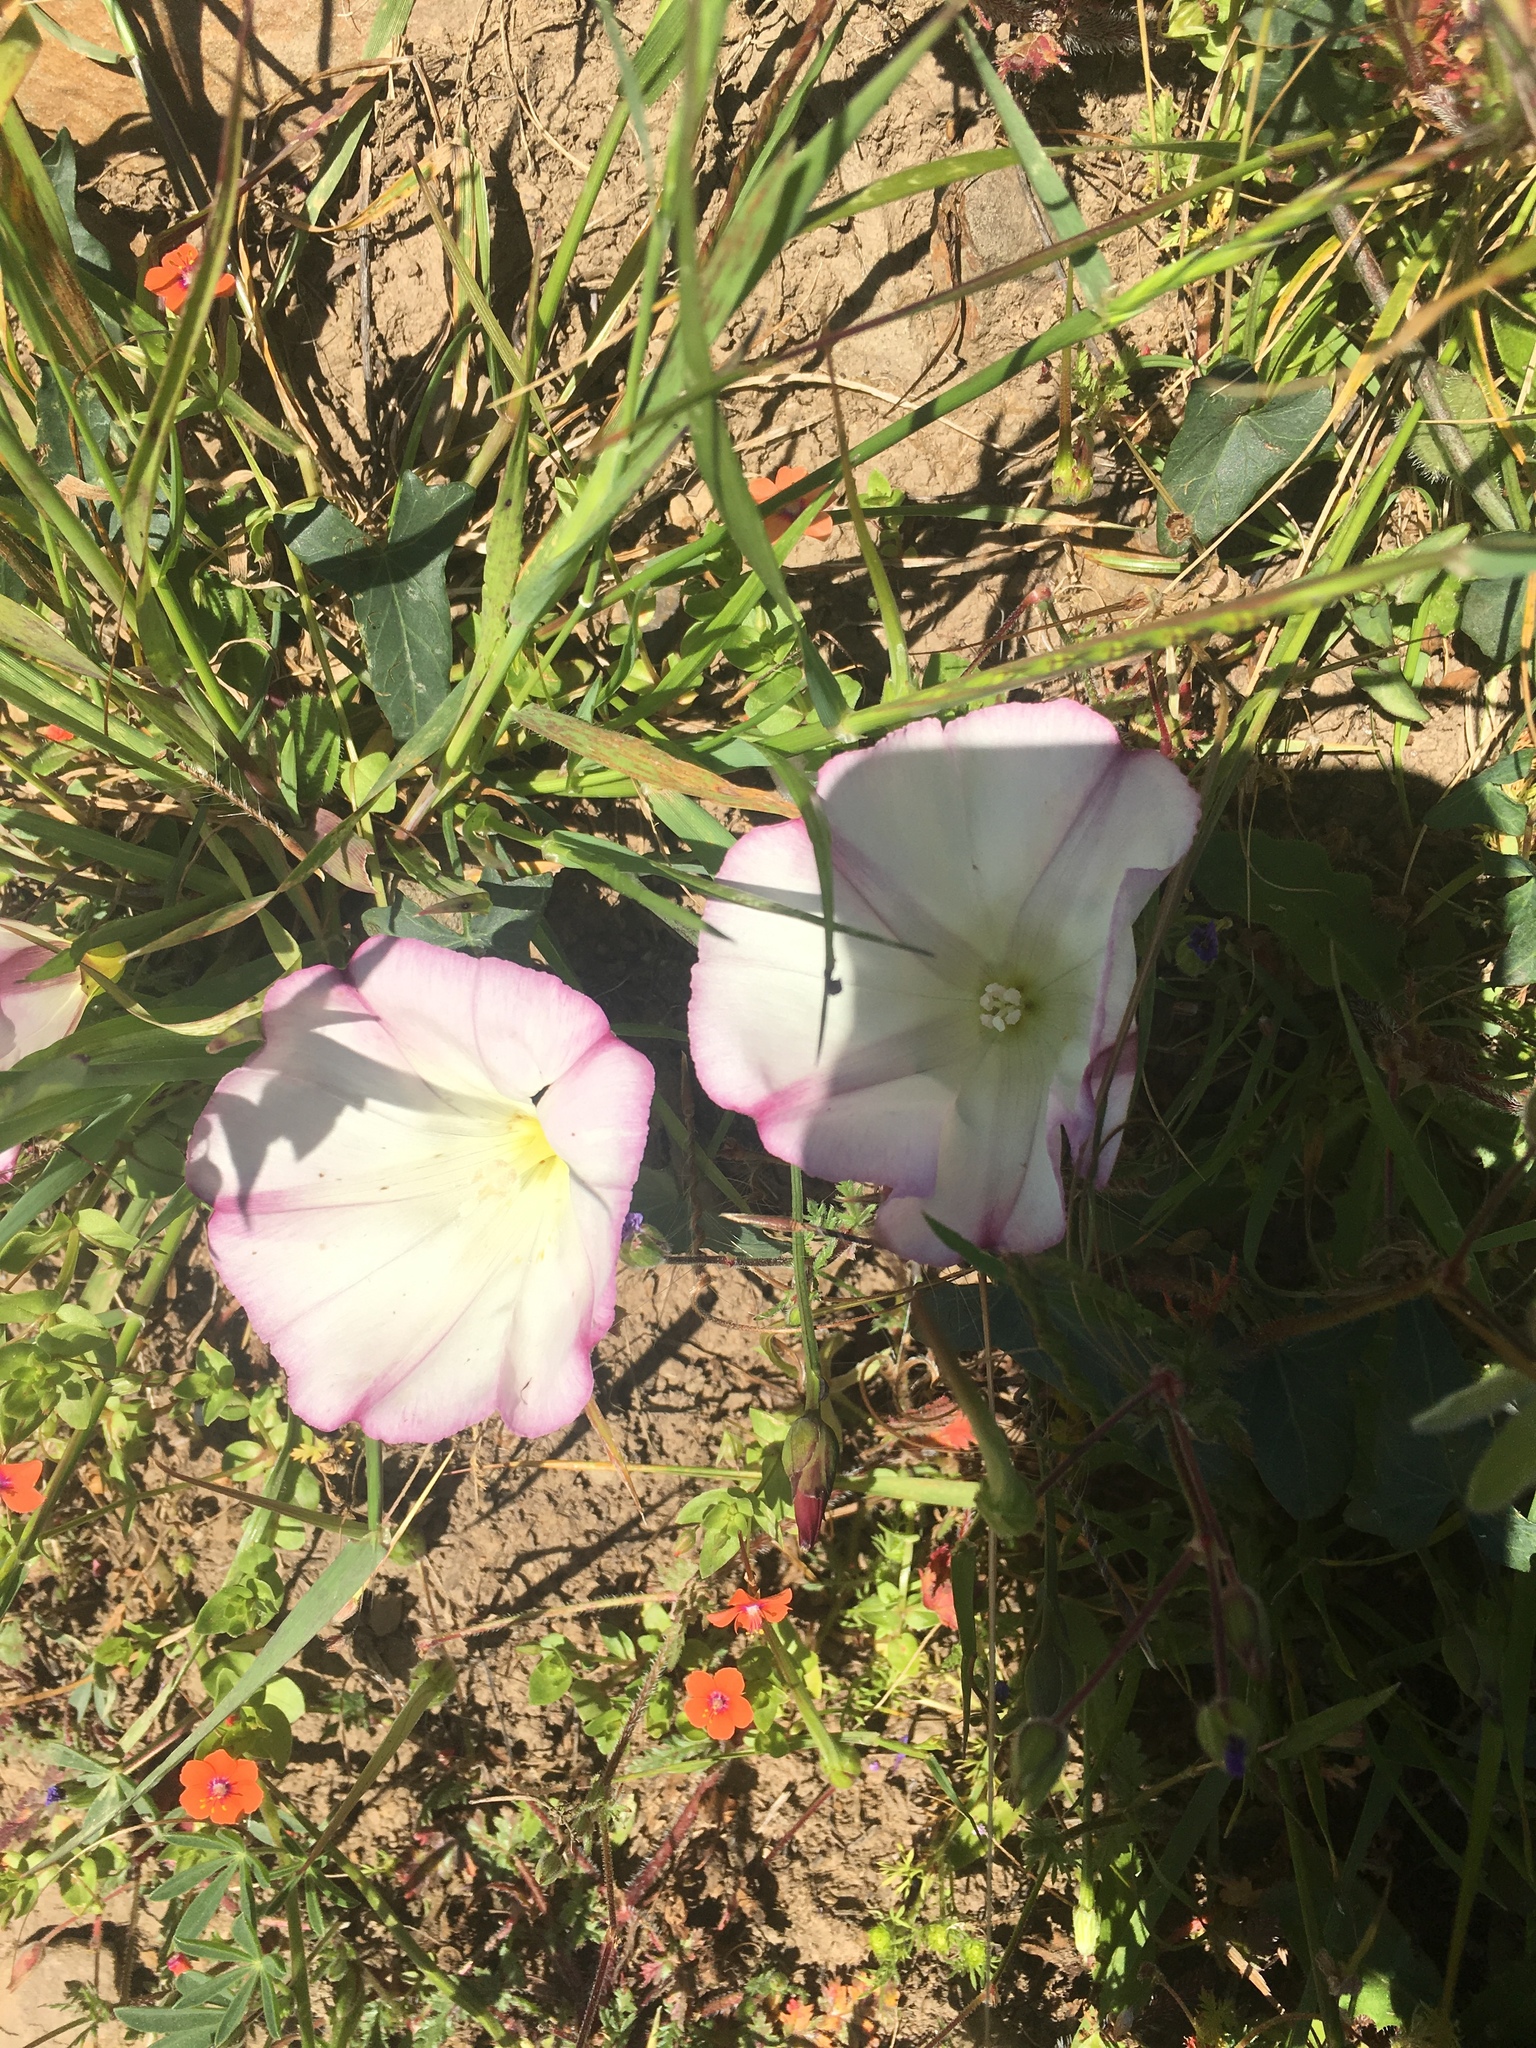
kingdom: Plantae
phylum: Tracheophyta
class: Magnoliopsida
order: Solanales
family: Convolvulaceae
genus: Calystegia
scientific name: Calystegia purpurata
